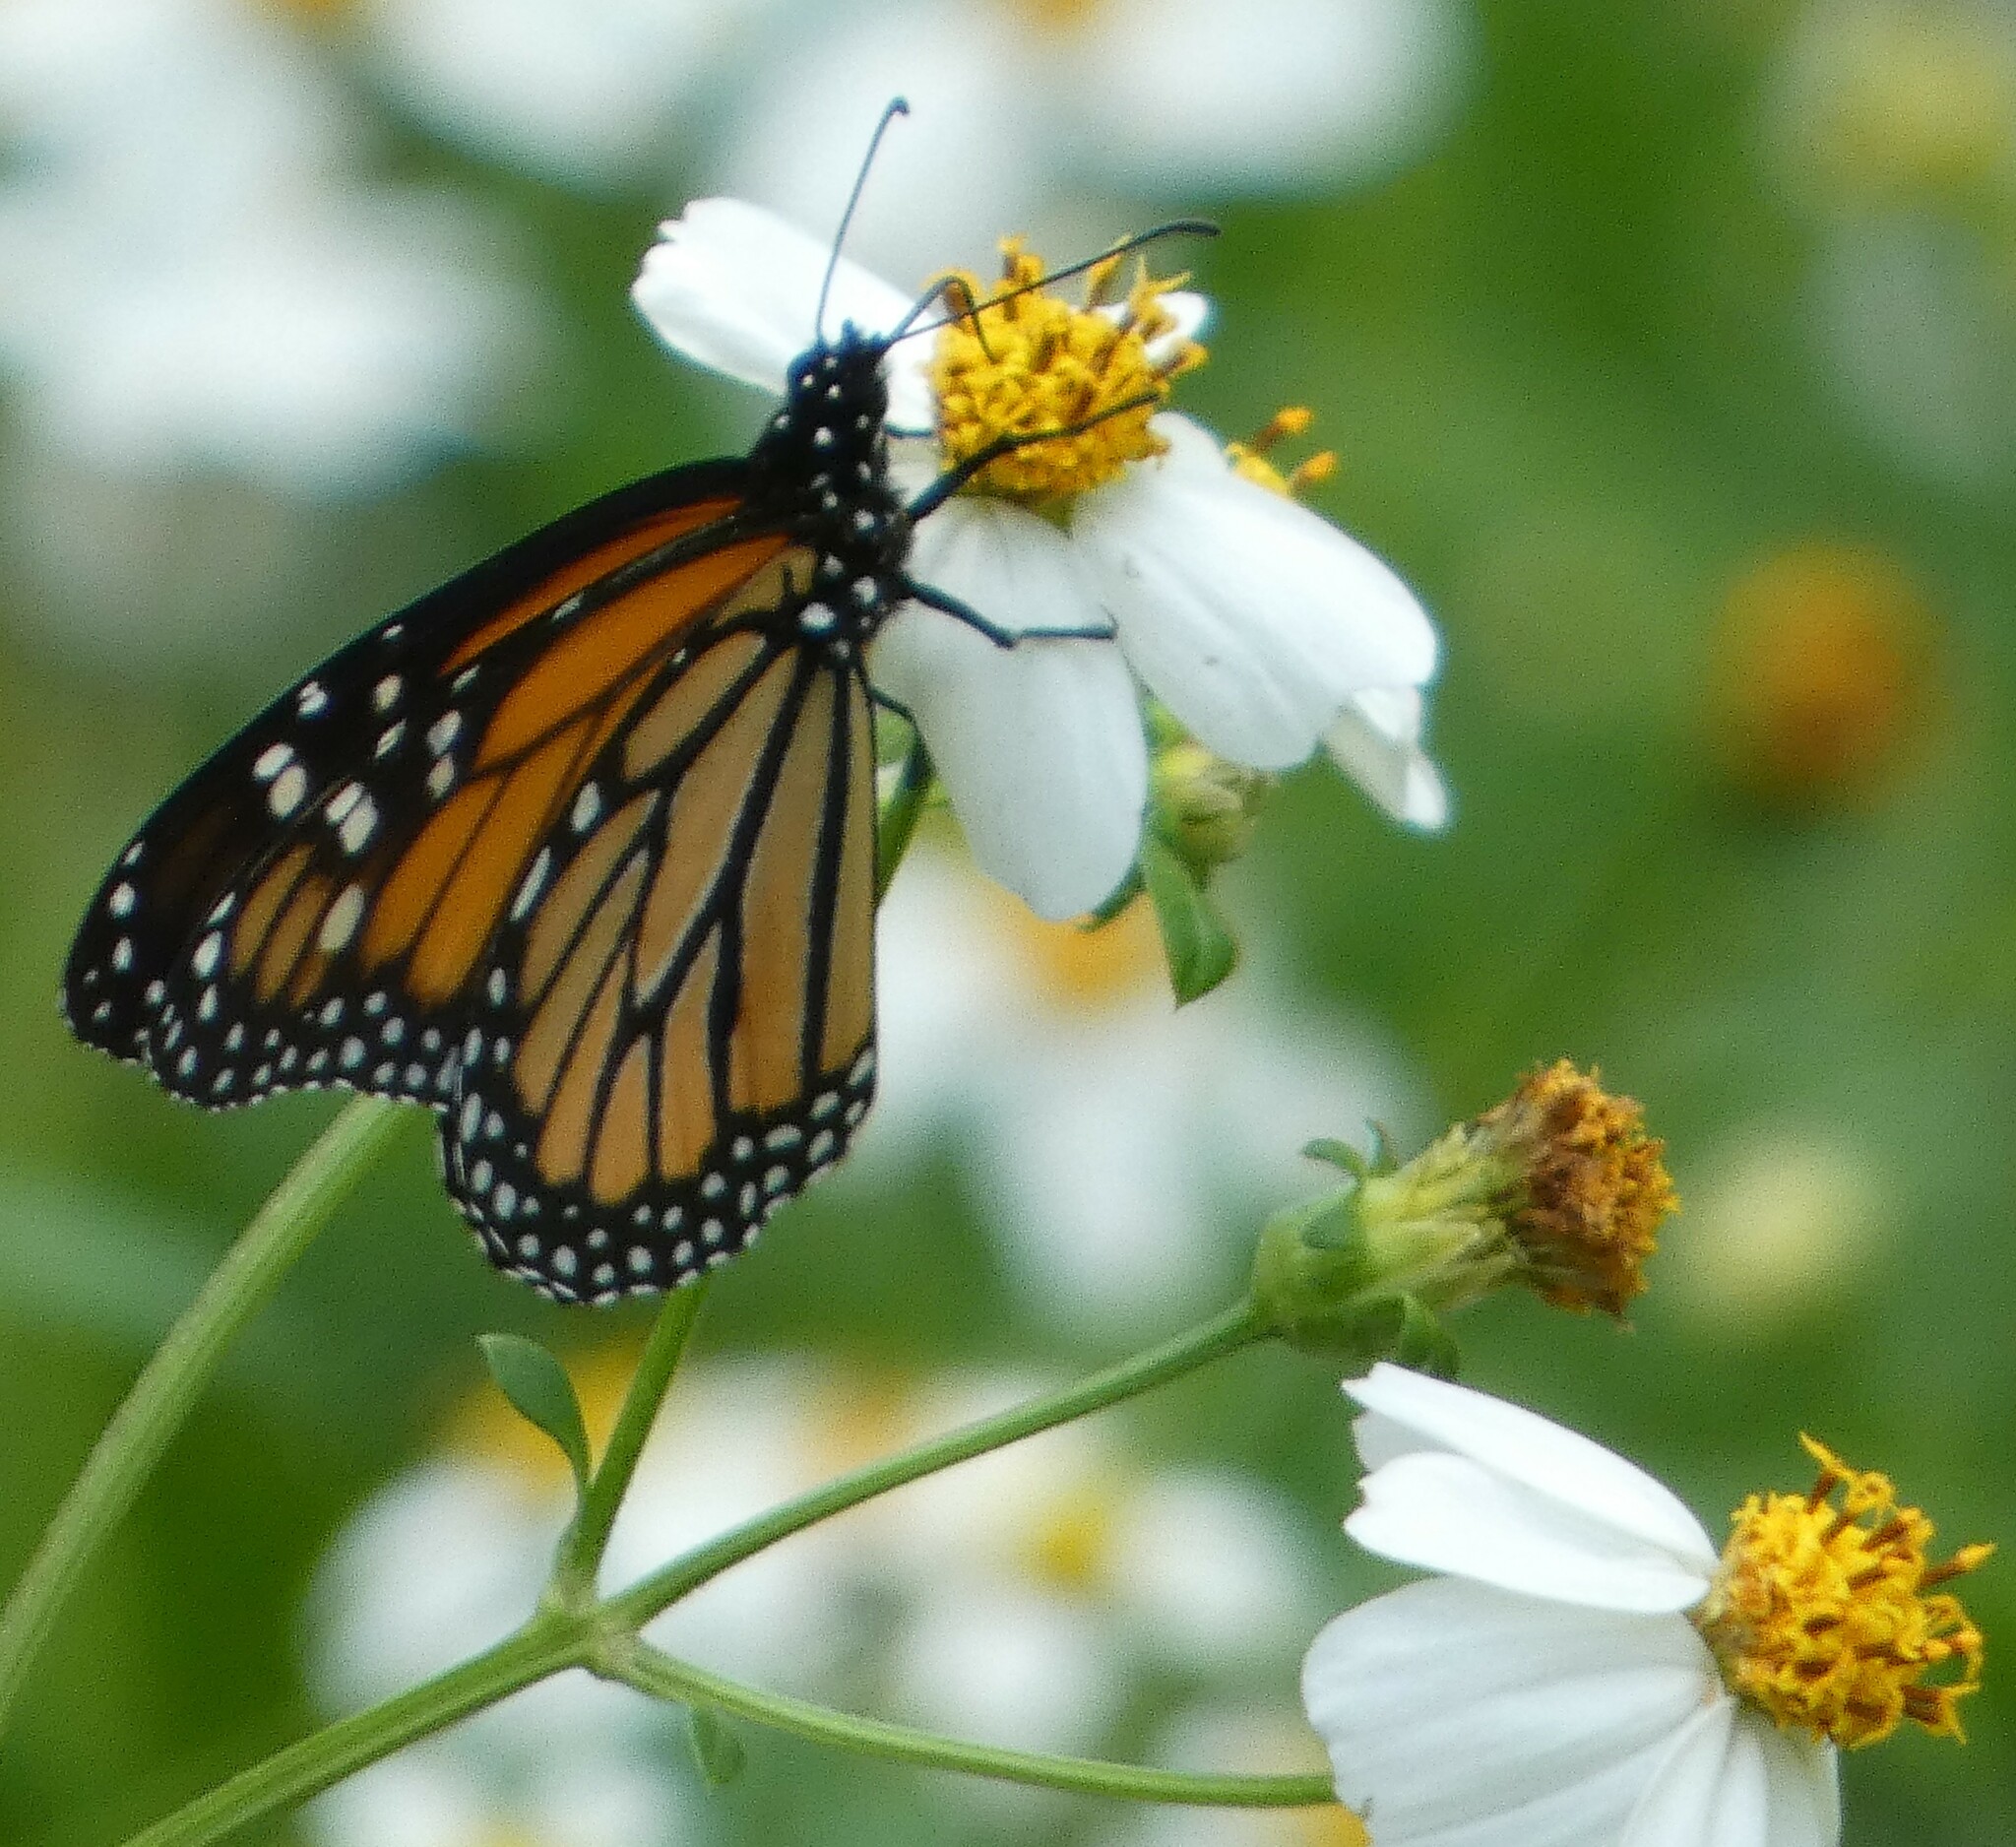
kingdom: Animalia
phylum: Arthropoda
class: Insecta
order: Lepidoptera
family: Nymphalidae
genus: Danaus
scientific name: Danaus plexippus
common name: Monarch
